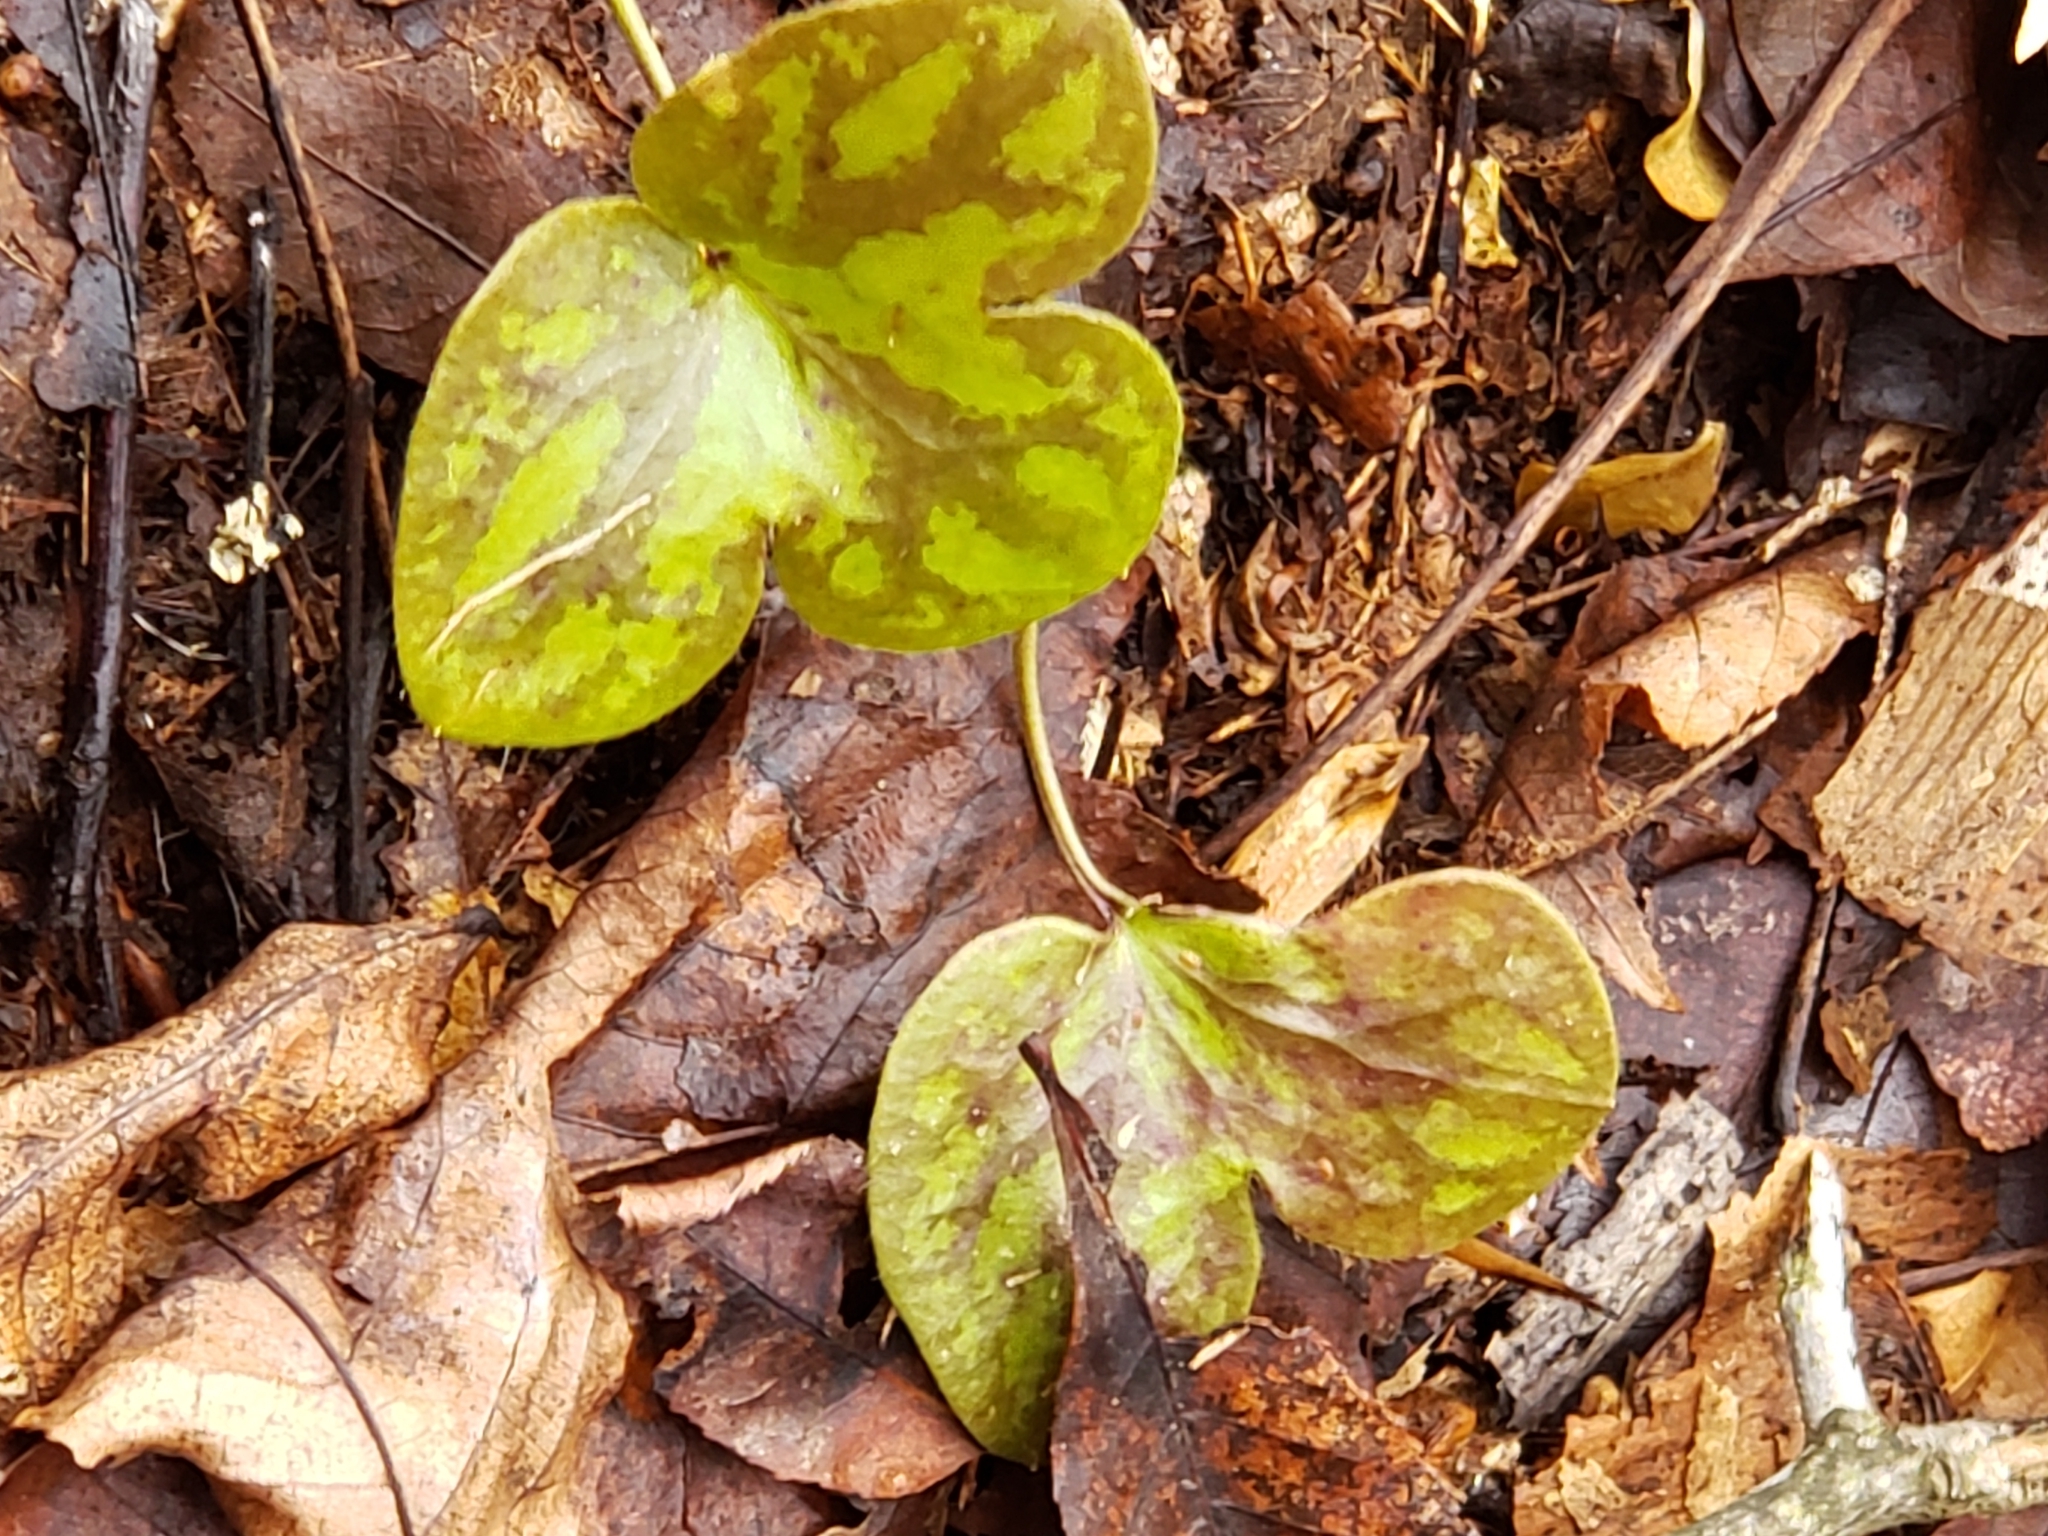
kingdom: Plantae
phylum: Tracheophyta
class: Magnoliopsida
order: Ranunculales
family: Ranunculaceae
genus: Hepatica
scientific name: Hepatica americana
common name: American hepatica
